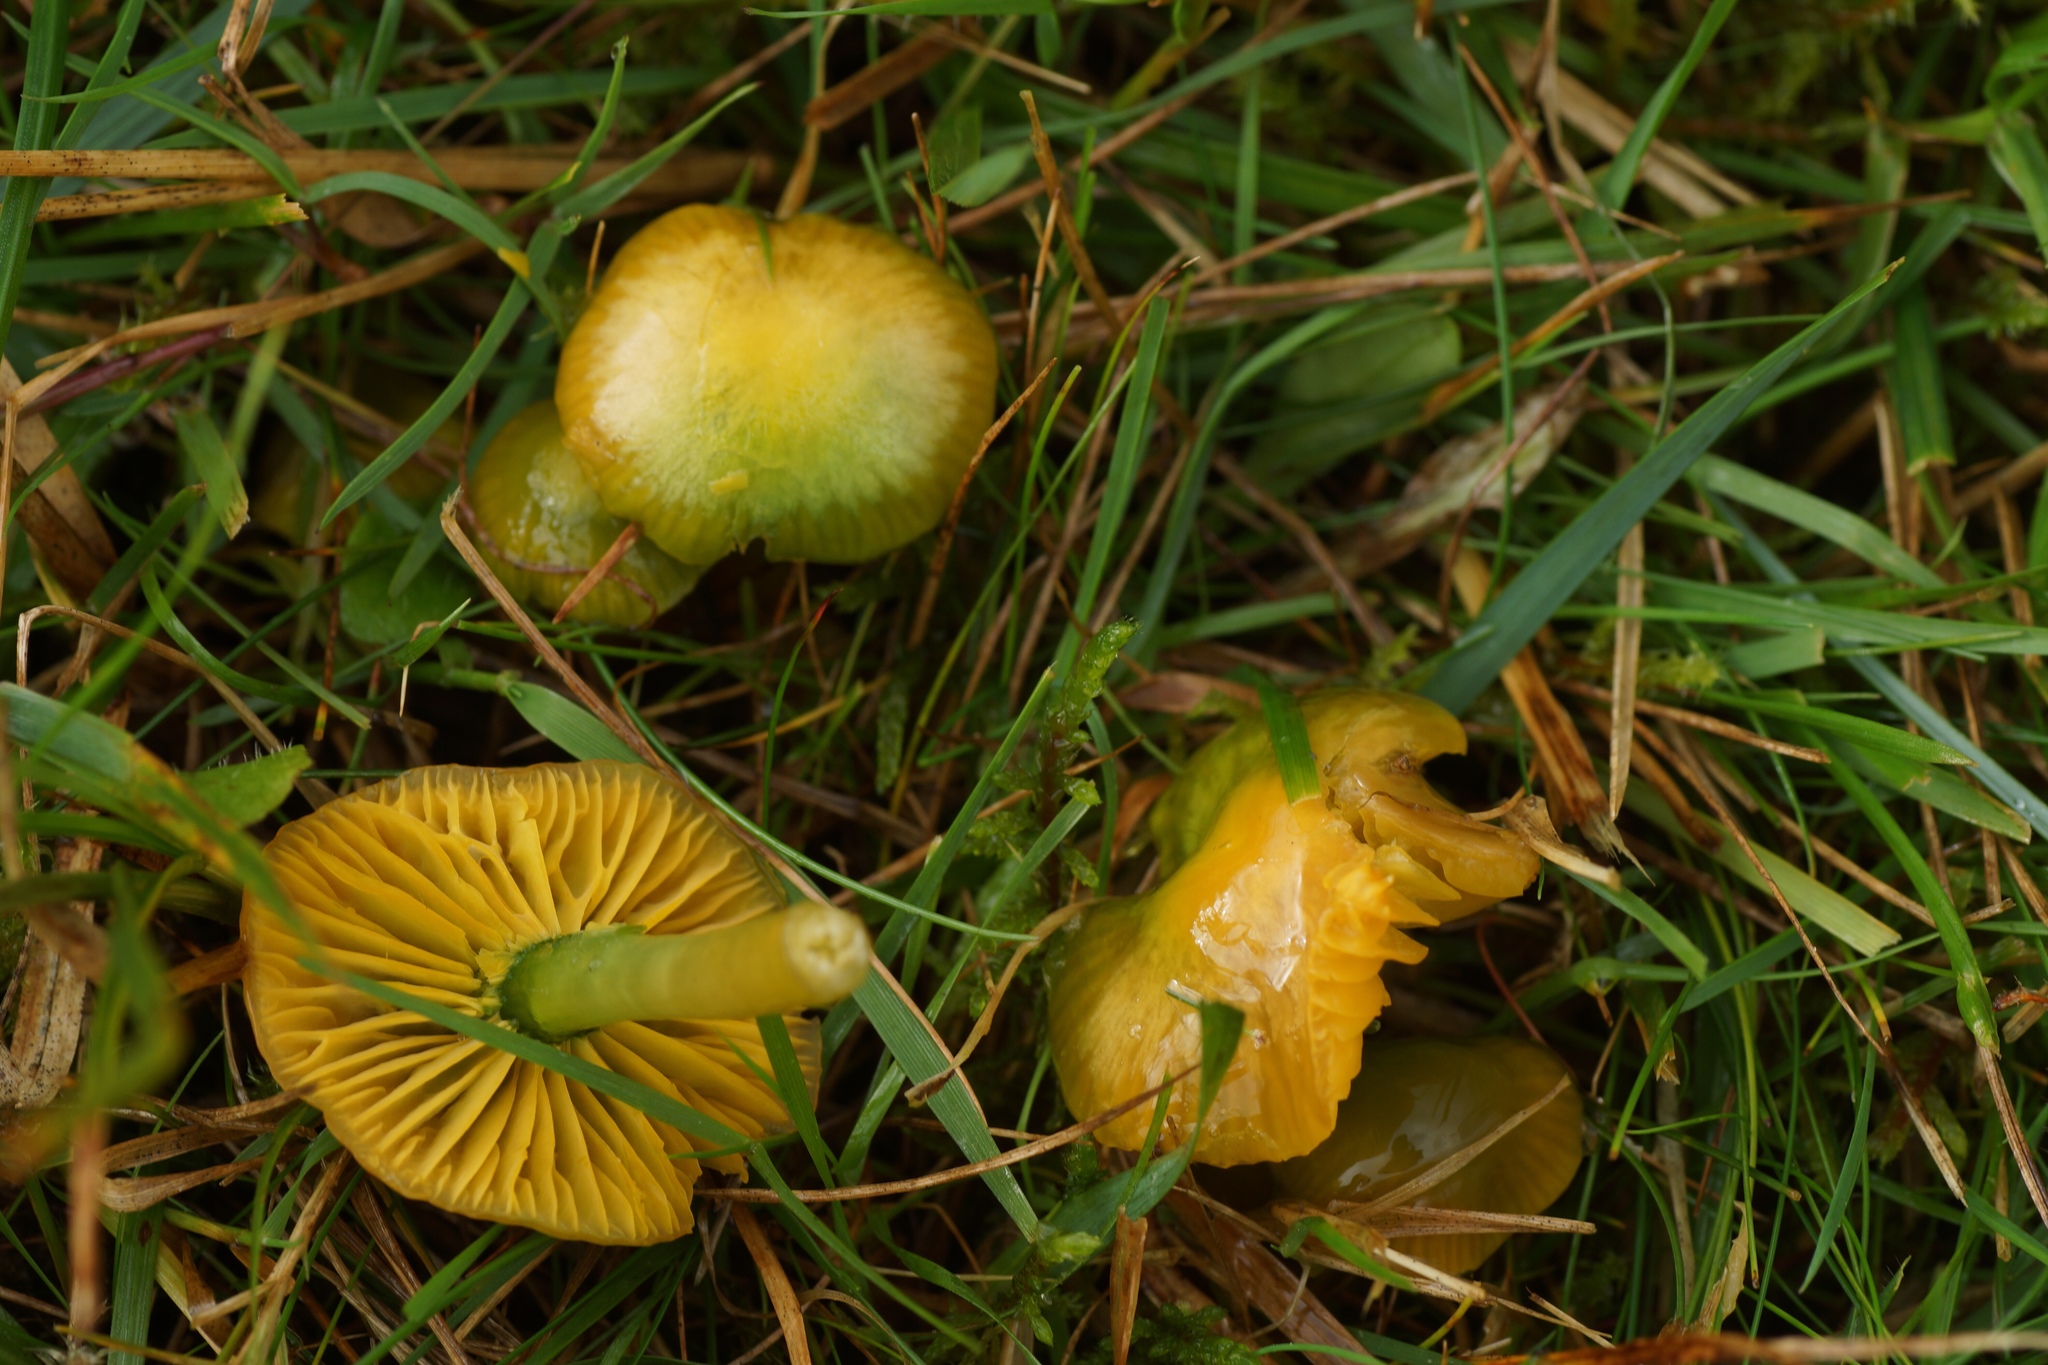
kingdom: Fungi
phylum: Basidiomycota
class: Agaricomycetes
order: Agaricales
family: Hygrophoraceae
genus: Gliophorus
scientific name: Gliophorus psittacinus
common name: Parrot wax-cap
